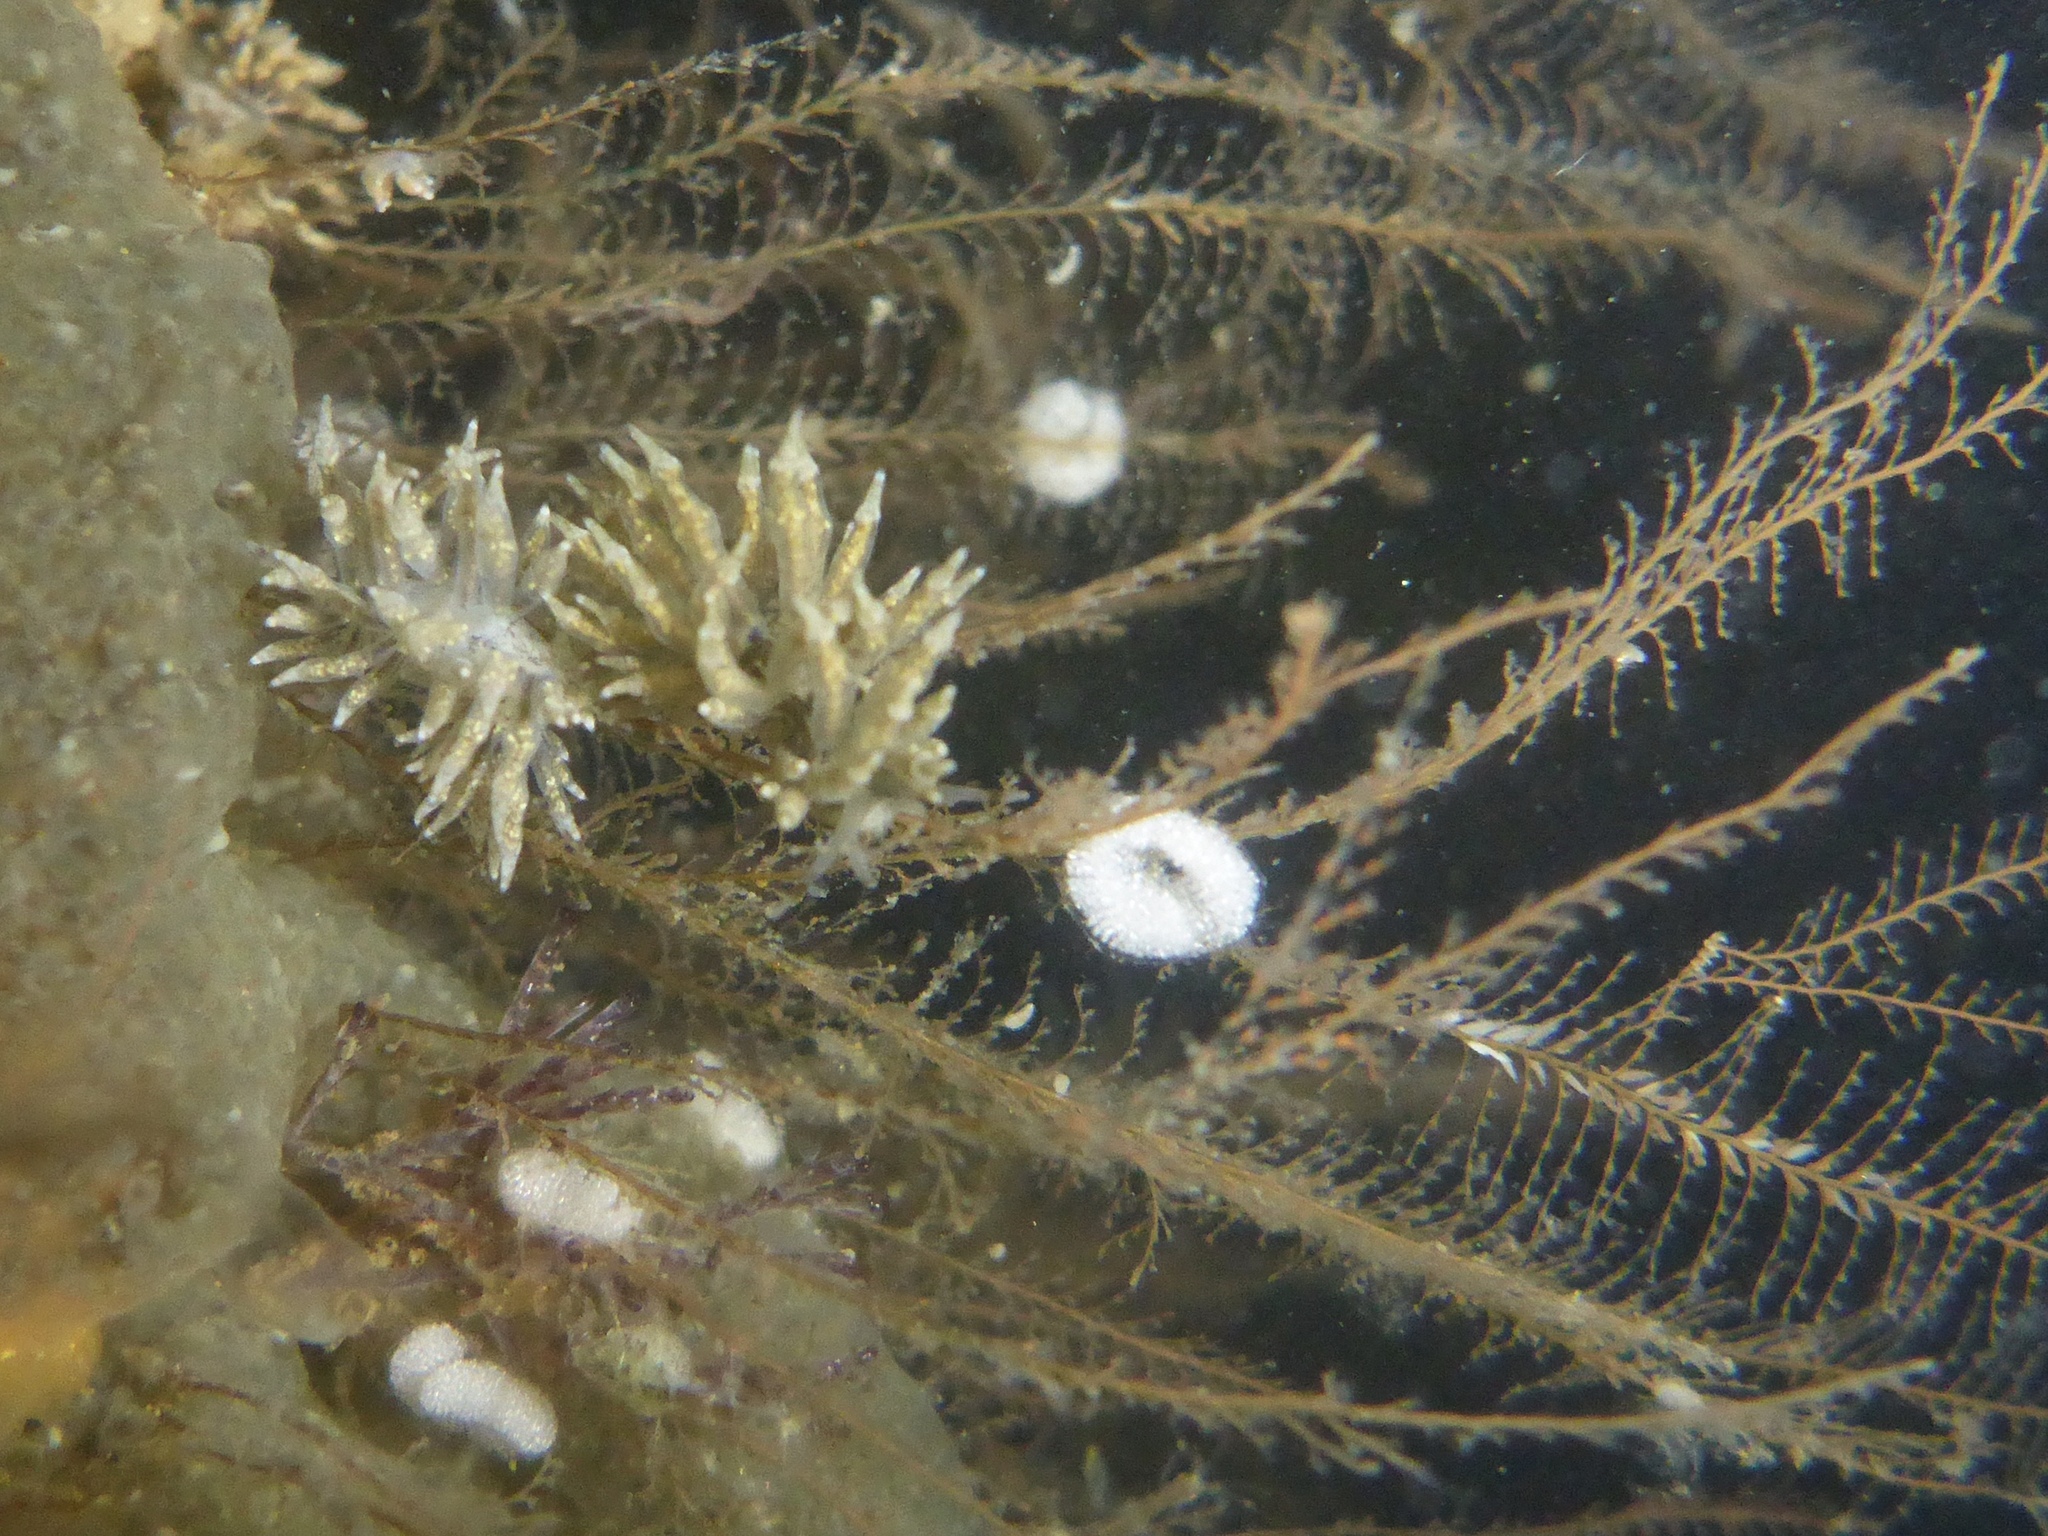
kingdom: Animalia
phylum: Mollusca
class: Gastropoda
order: Nudibranchia
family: Eubranchidae
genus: Eubranchus
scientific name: Eubranchus rustyus
